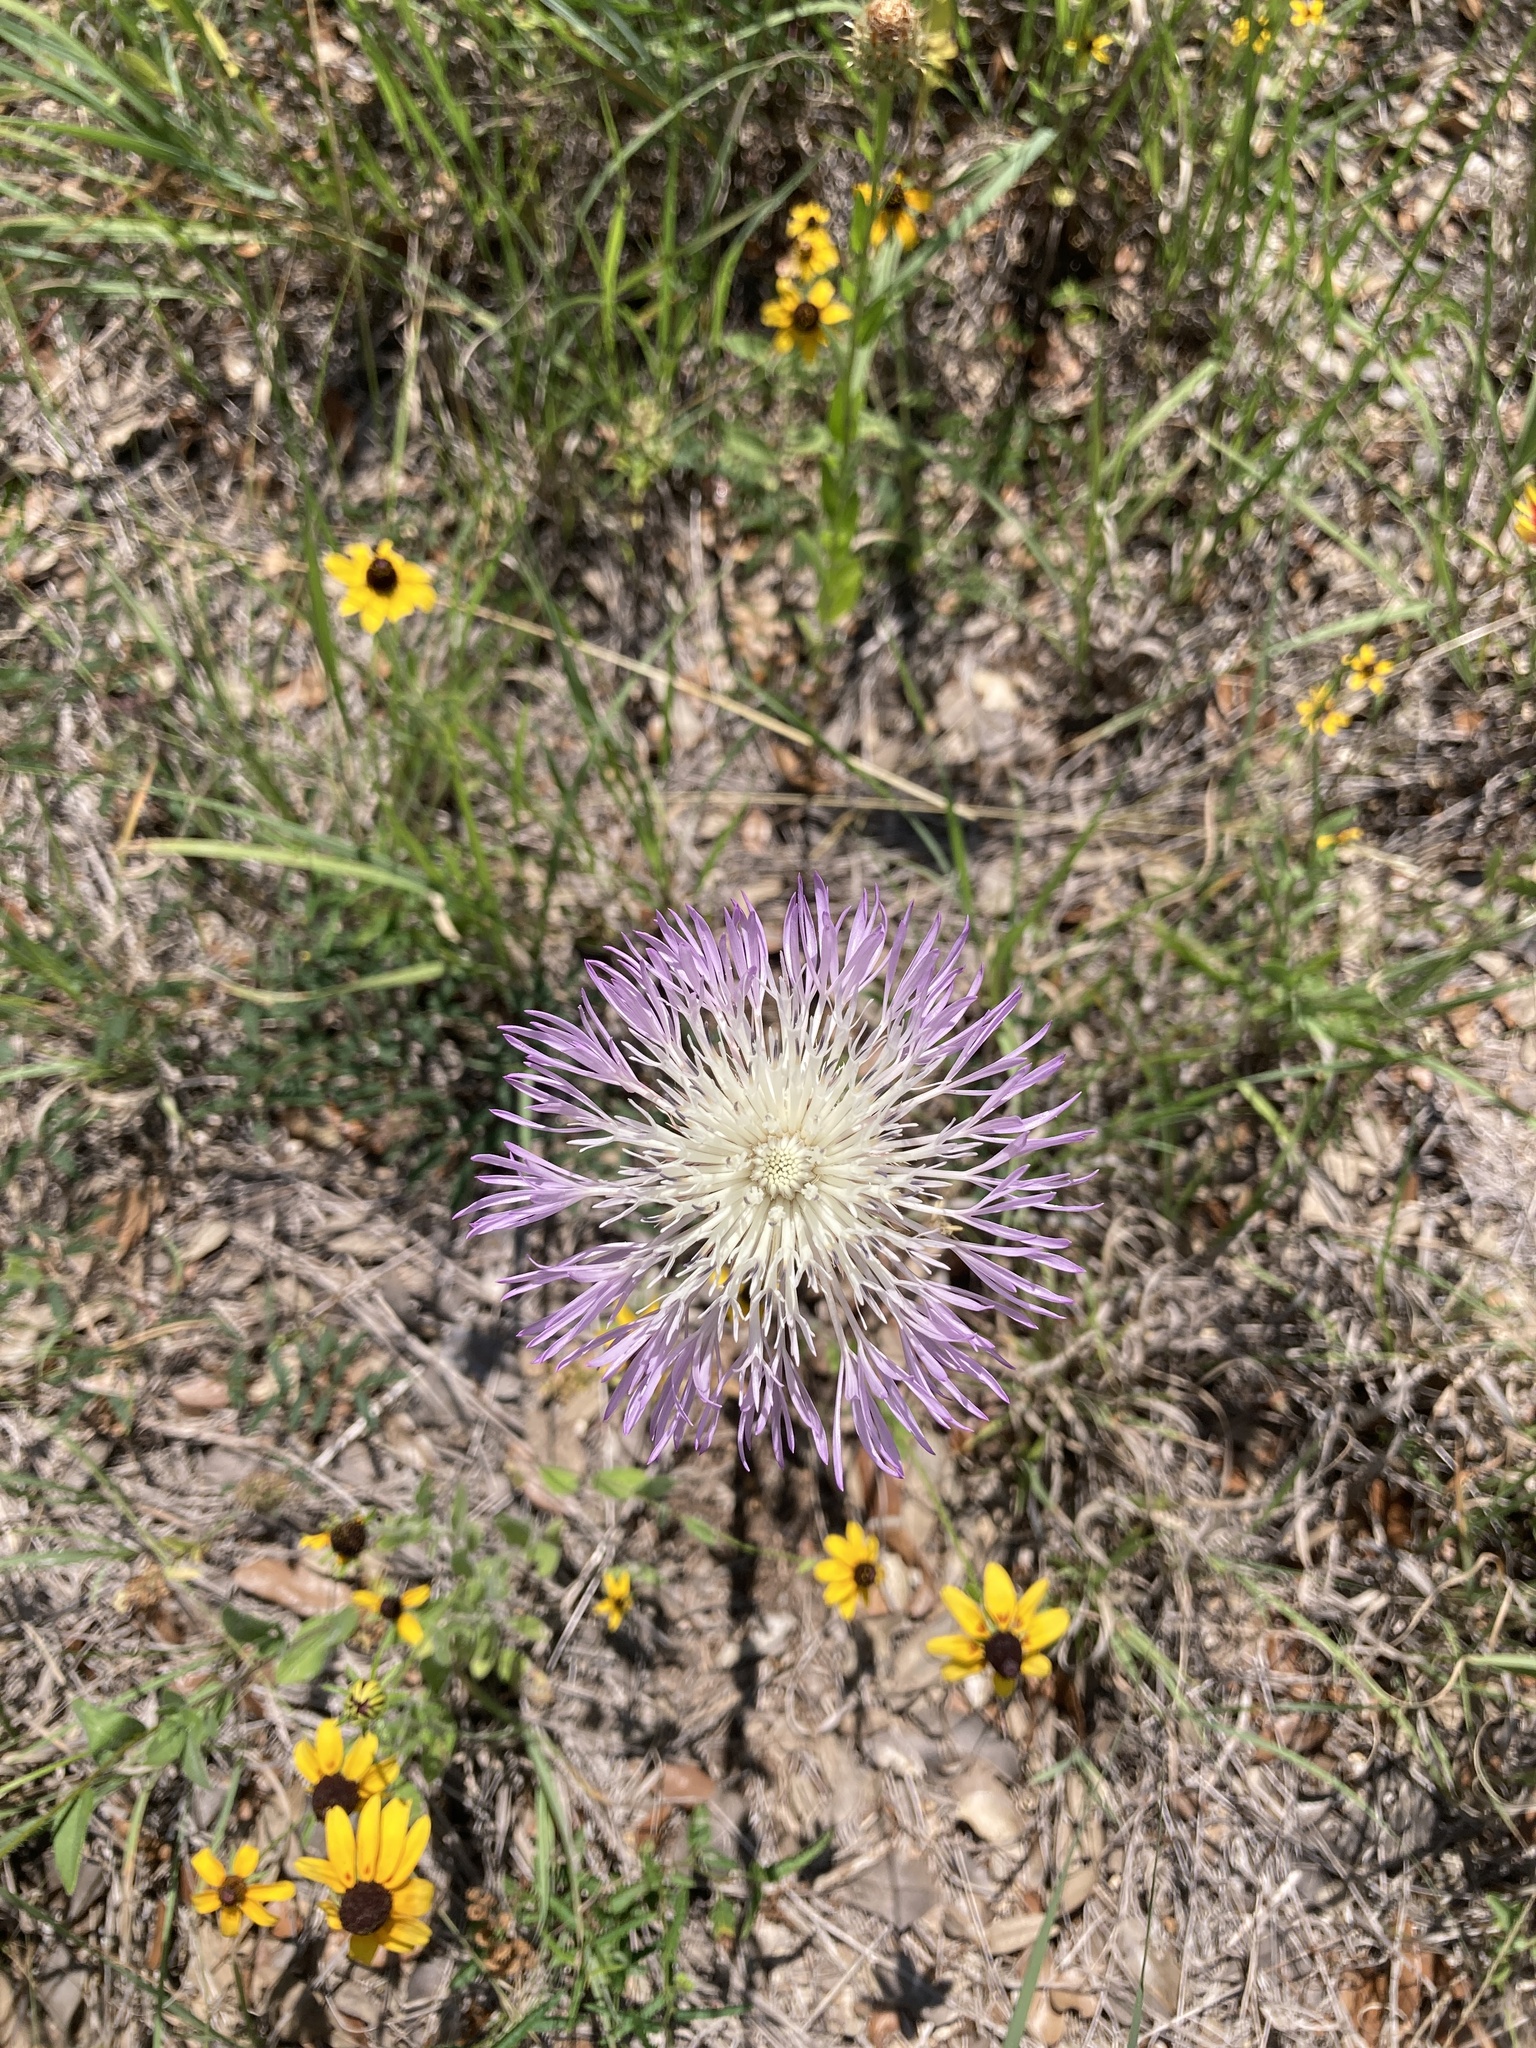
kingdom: Plantae
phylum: Tracheophyta
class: Magnoliopsida
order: Asterales
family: Asteraceae
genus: Plectocephalus
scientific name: Plectocephalus americanus
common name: American basket-flower
